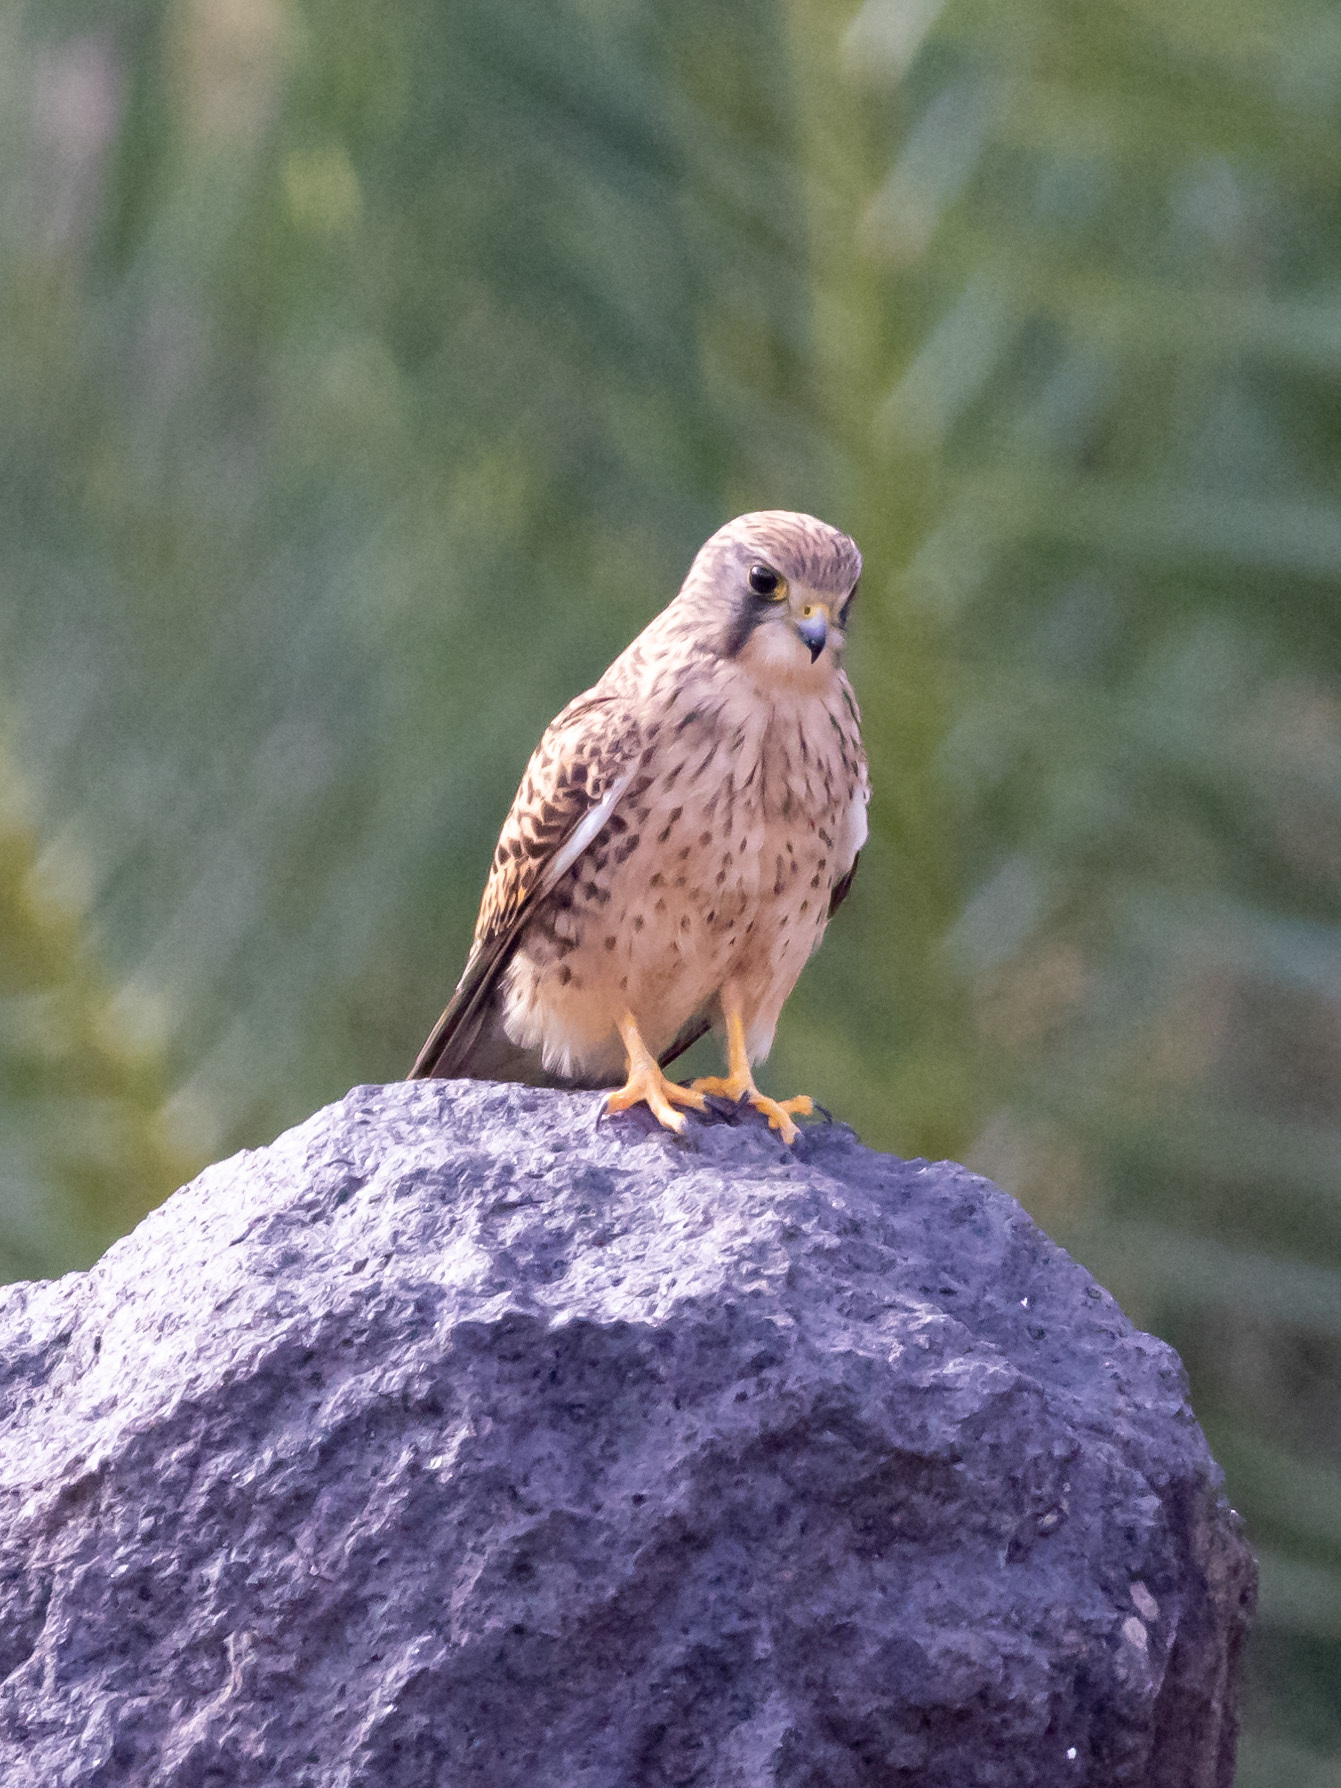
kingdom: Animalia
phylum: Chordata
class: Aves
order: Falconiformes
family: Falconidae
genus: Falco
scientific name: Falco tinnunculus
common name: Common kestrel
